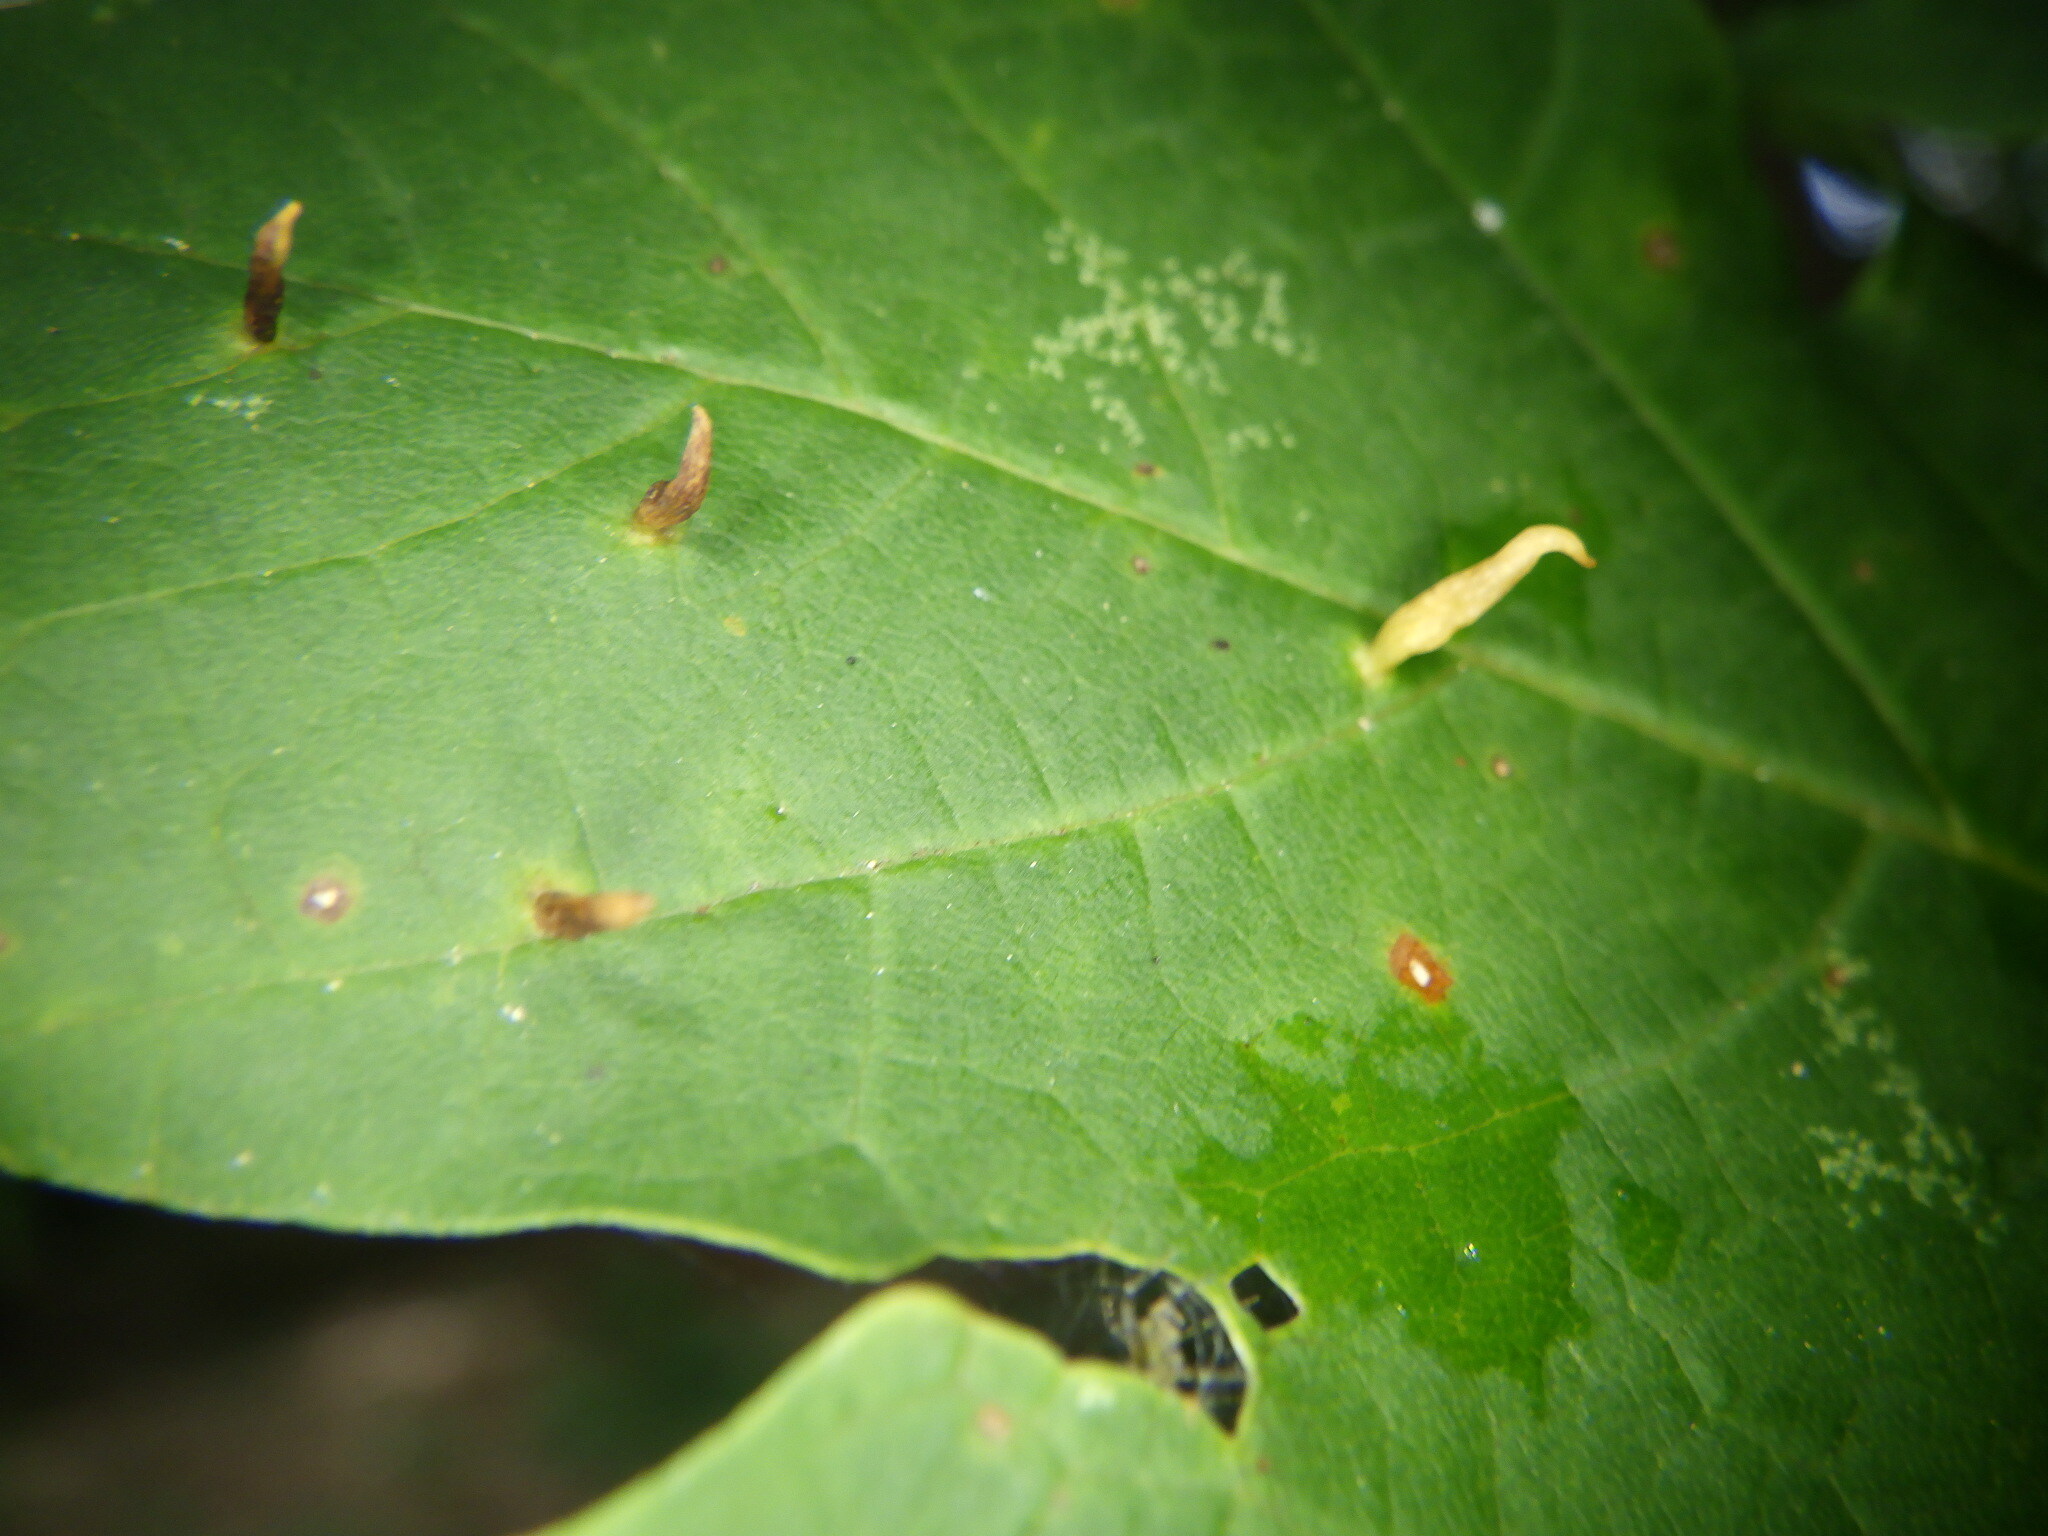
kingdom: Animalia
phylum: Arthropoda
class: Arachnida
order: Trombidiformes
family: Eriophyidae
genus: Vasates
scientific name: Vasates aceriscrumena
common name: Maple spindle gall mite
